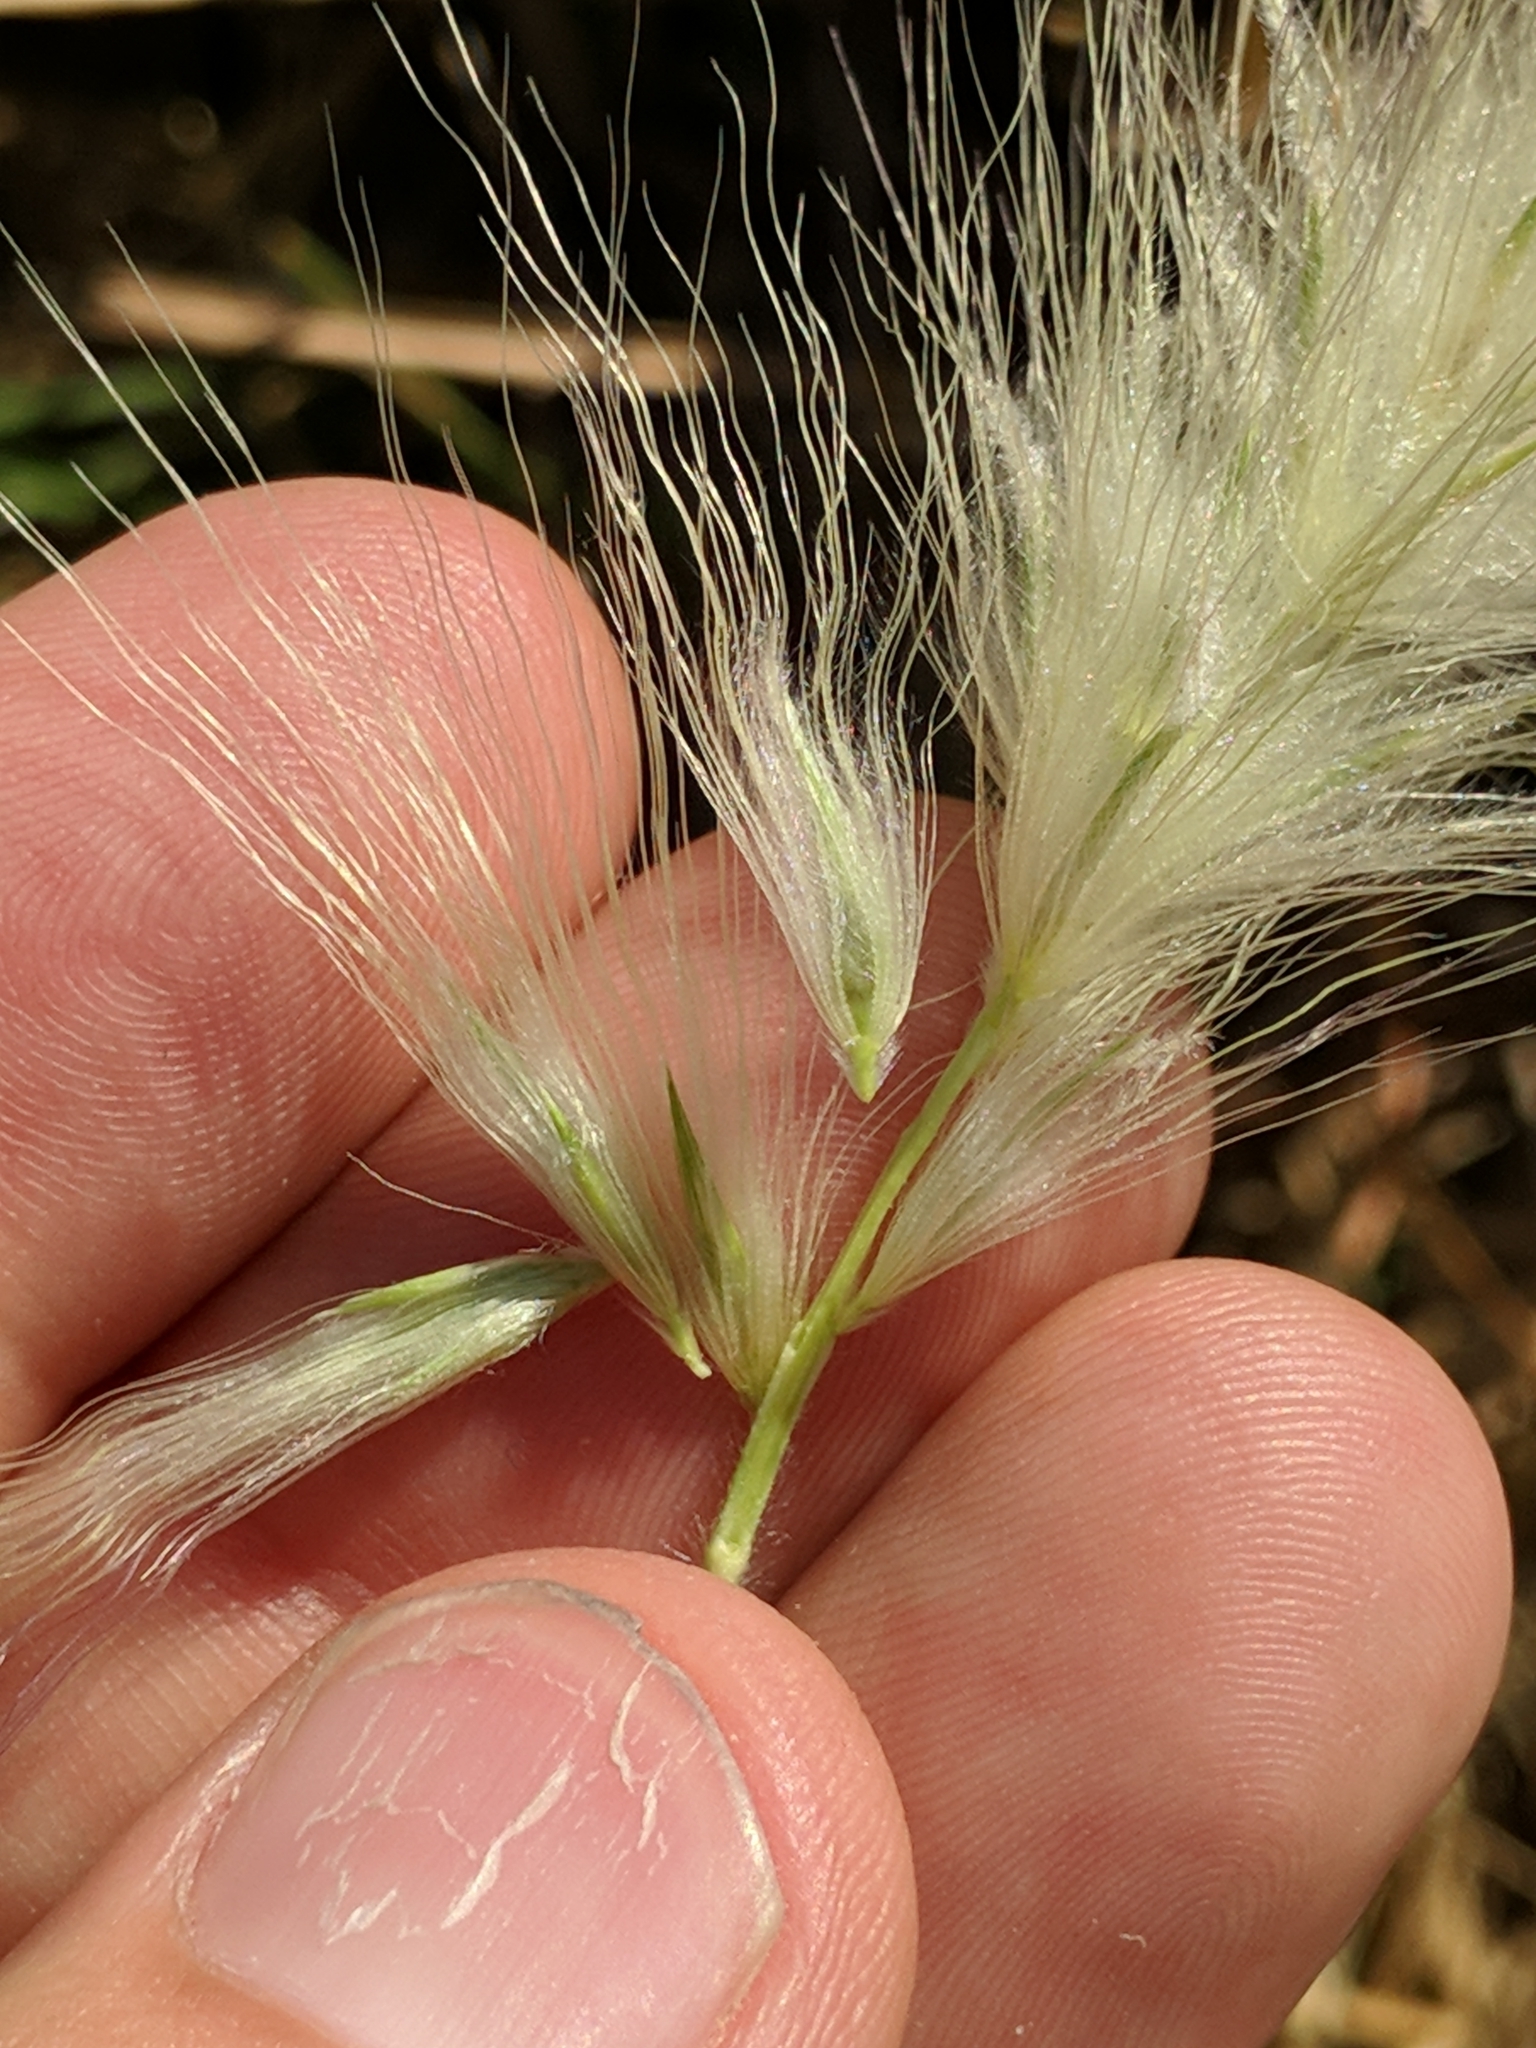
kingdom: Plantae
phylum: Tracheophyta
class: Liliopsida
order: Poales
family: Poaceae
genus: Cenchrus
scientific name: Cenchrus longisetus
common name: Feathertop
